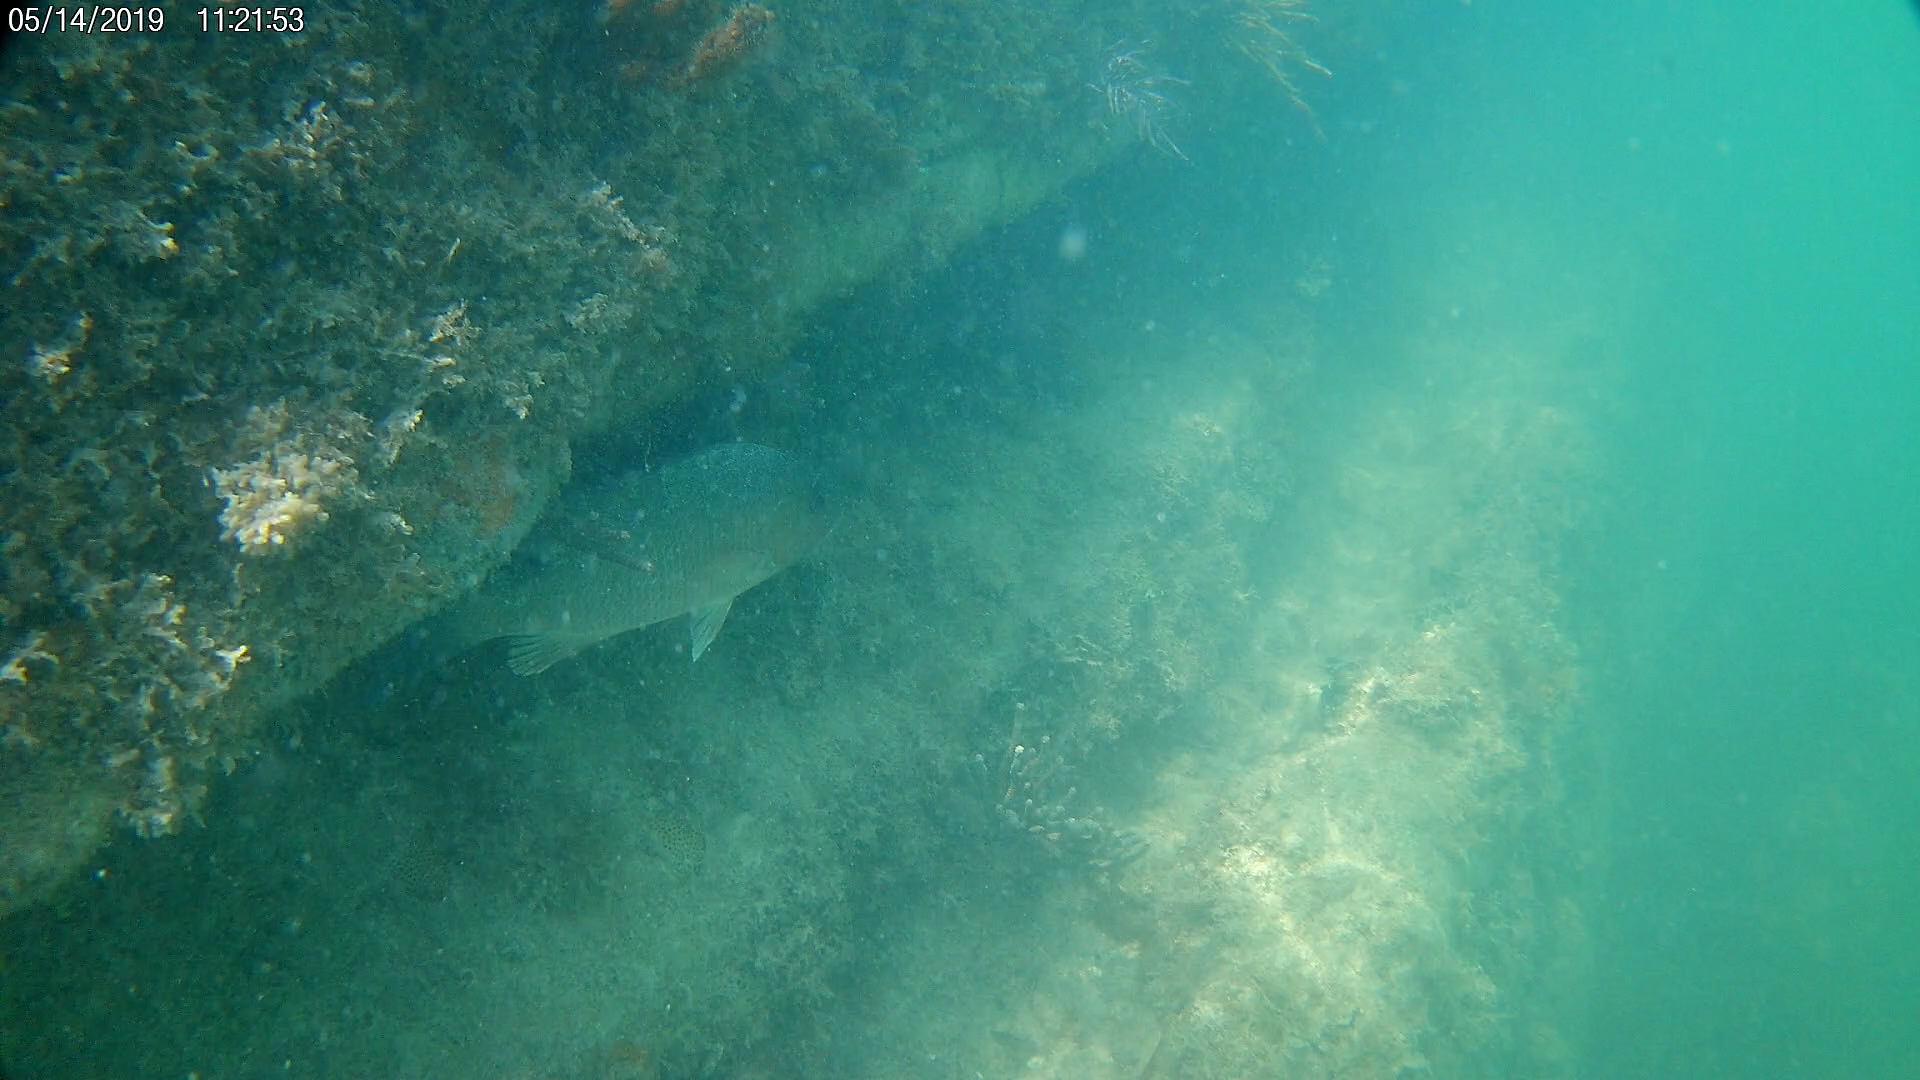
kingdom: Animalia
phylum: Chordata
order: Perciformes
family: Lutjanidae
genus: Lutjanus
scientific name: Lutjanus griseus
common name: Gray snapper
